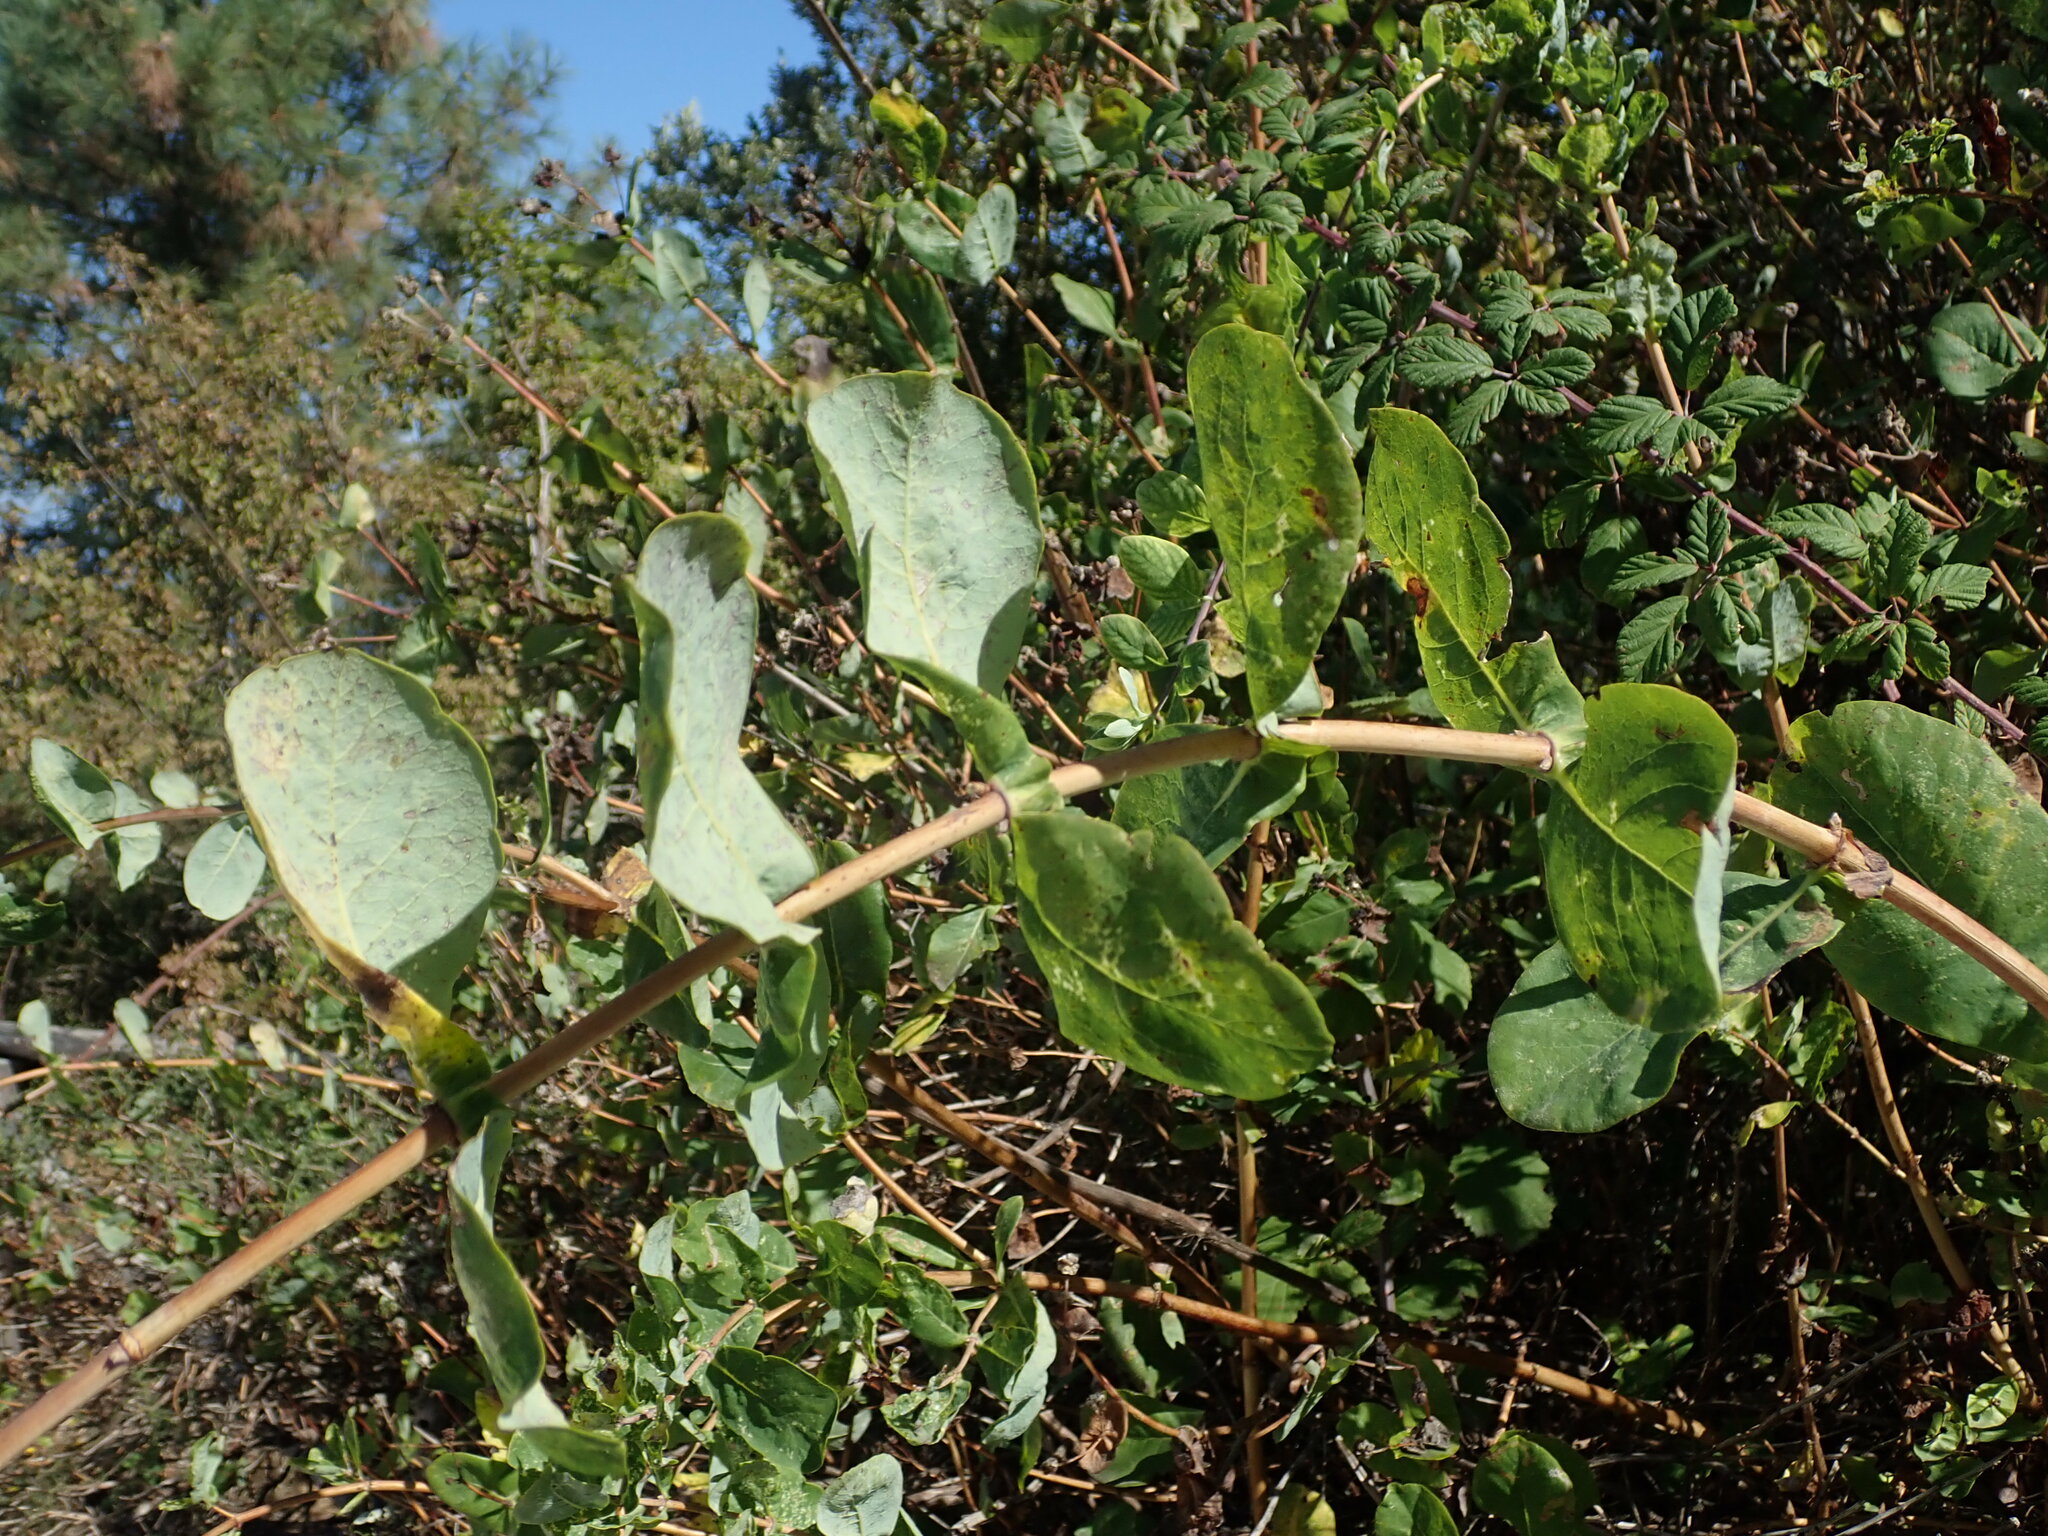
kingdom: Plantae
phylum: Tracheophyta
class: Magnoliopsida
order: Dipsacales
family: Caprifoliaceae
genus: Lonicera
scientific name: Lonicera etrusca
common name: Etruscan honeysuckle
